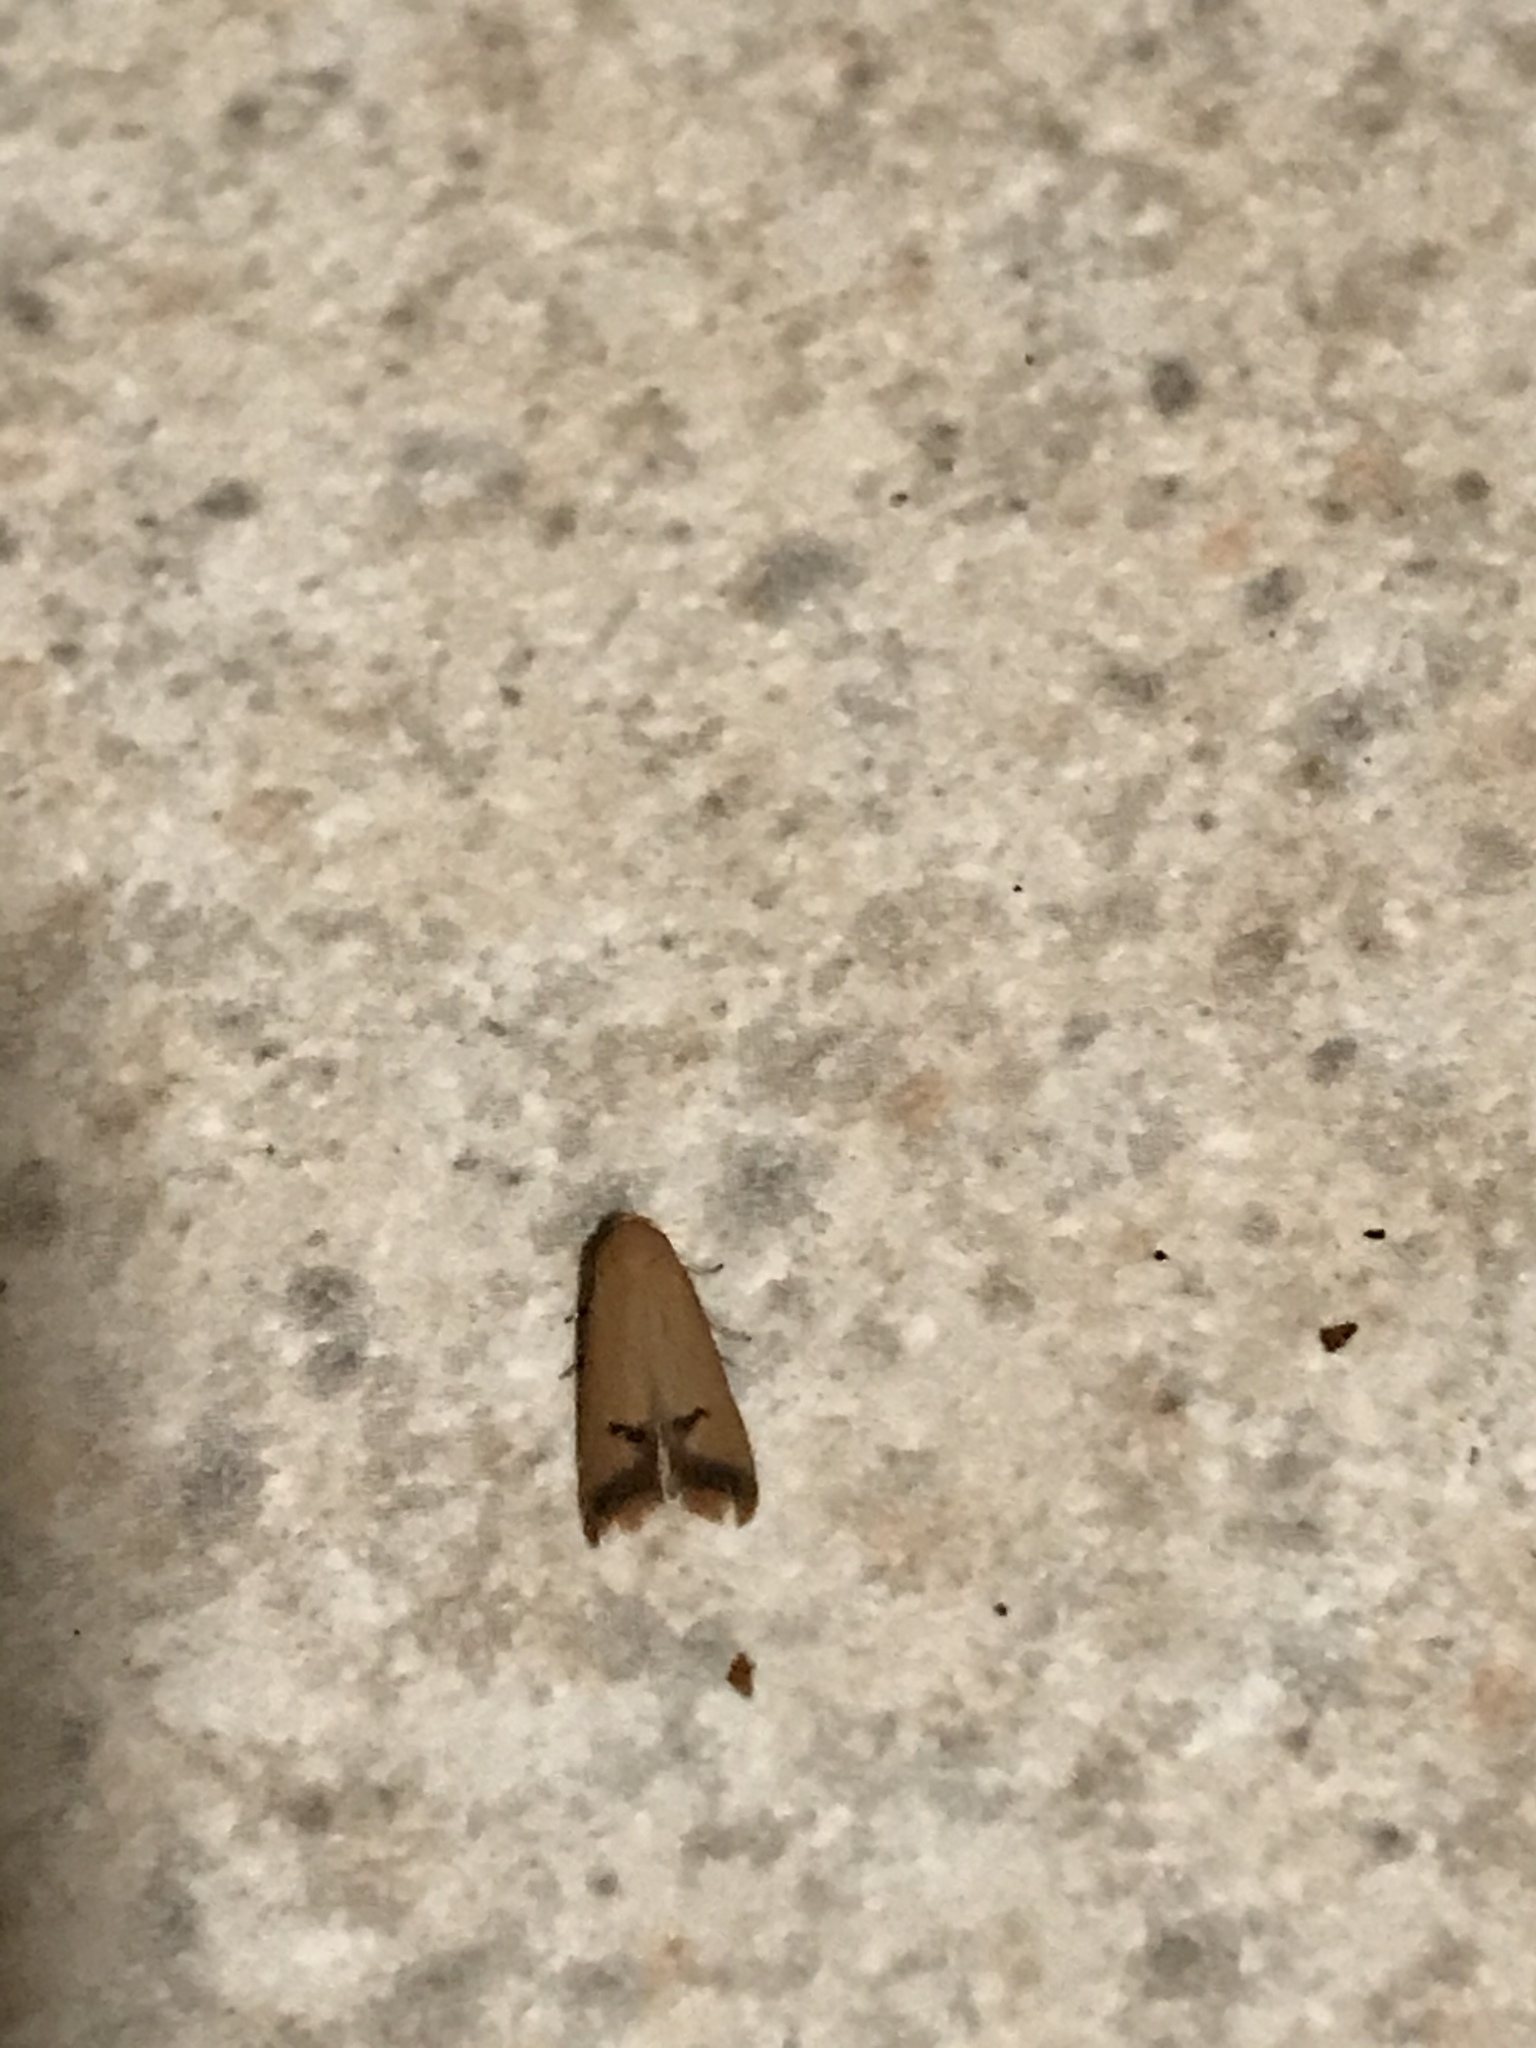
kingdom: Animalia
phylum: Arthropoda
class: Insecta
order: Lepidoptera
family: Oecophoridae
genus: Tachystola
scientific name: Tachystola hemisema
